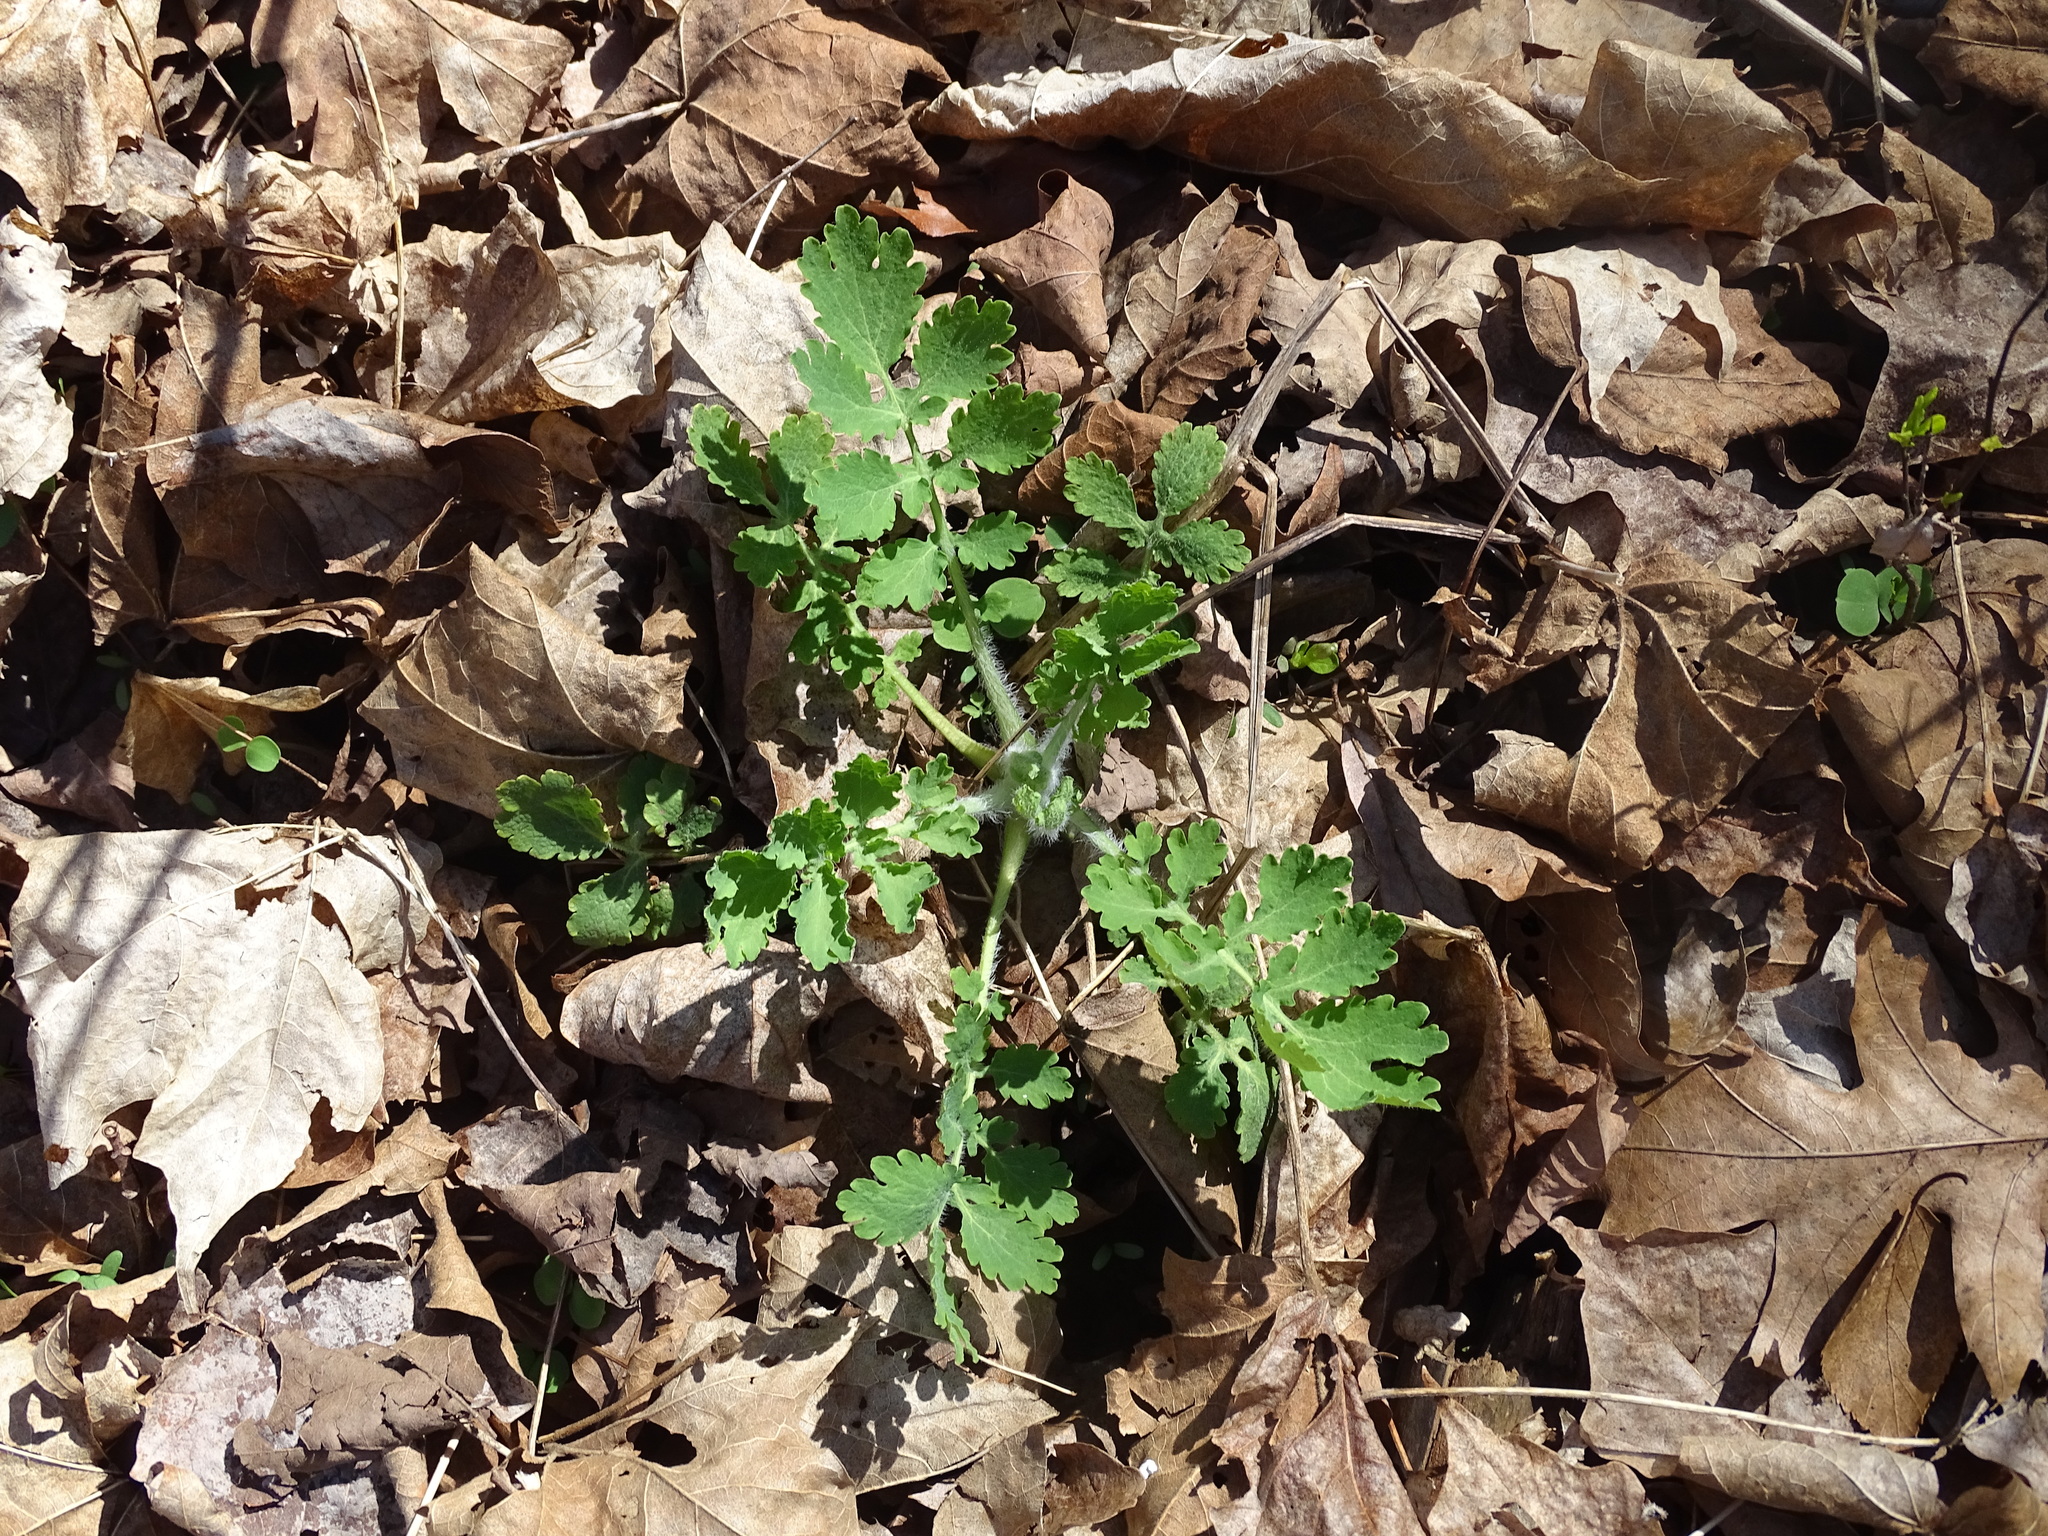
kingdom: Plantae
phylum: Tracheophyta
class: Magnoliopsida
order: Ranunculales
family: Papaveraceae
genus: Chelidonium
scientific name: Chelidonium majus
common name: Greater celandine
